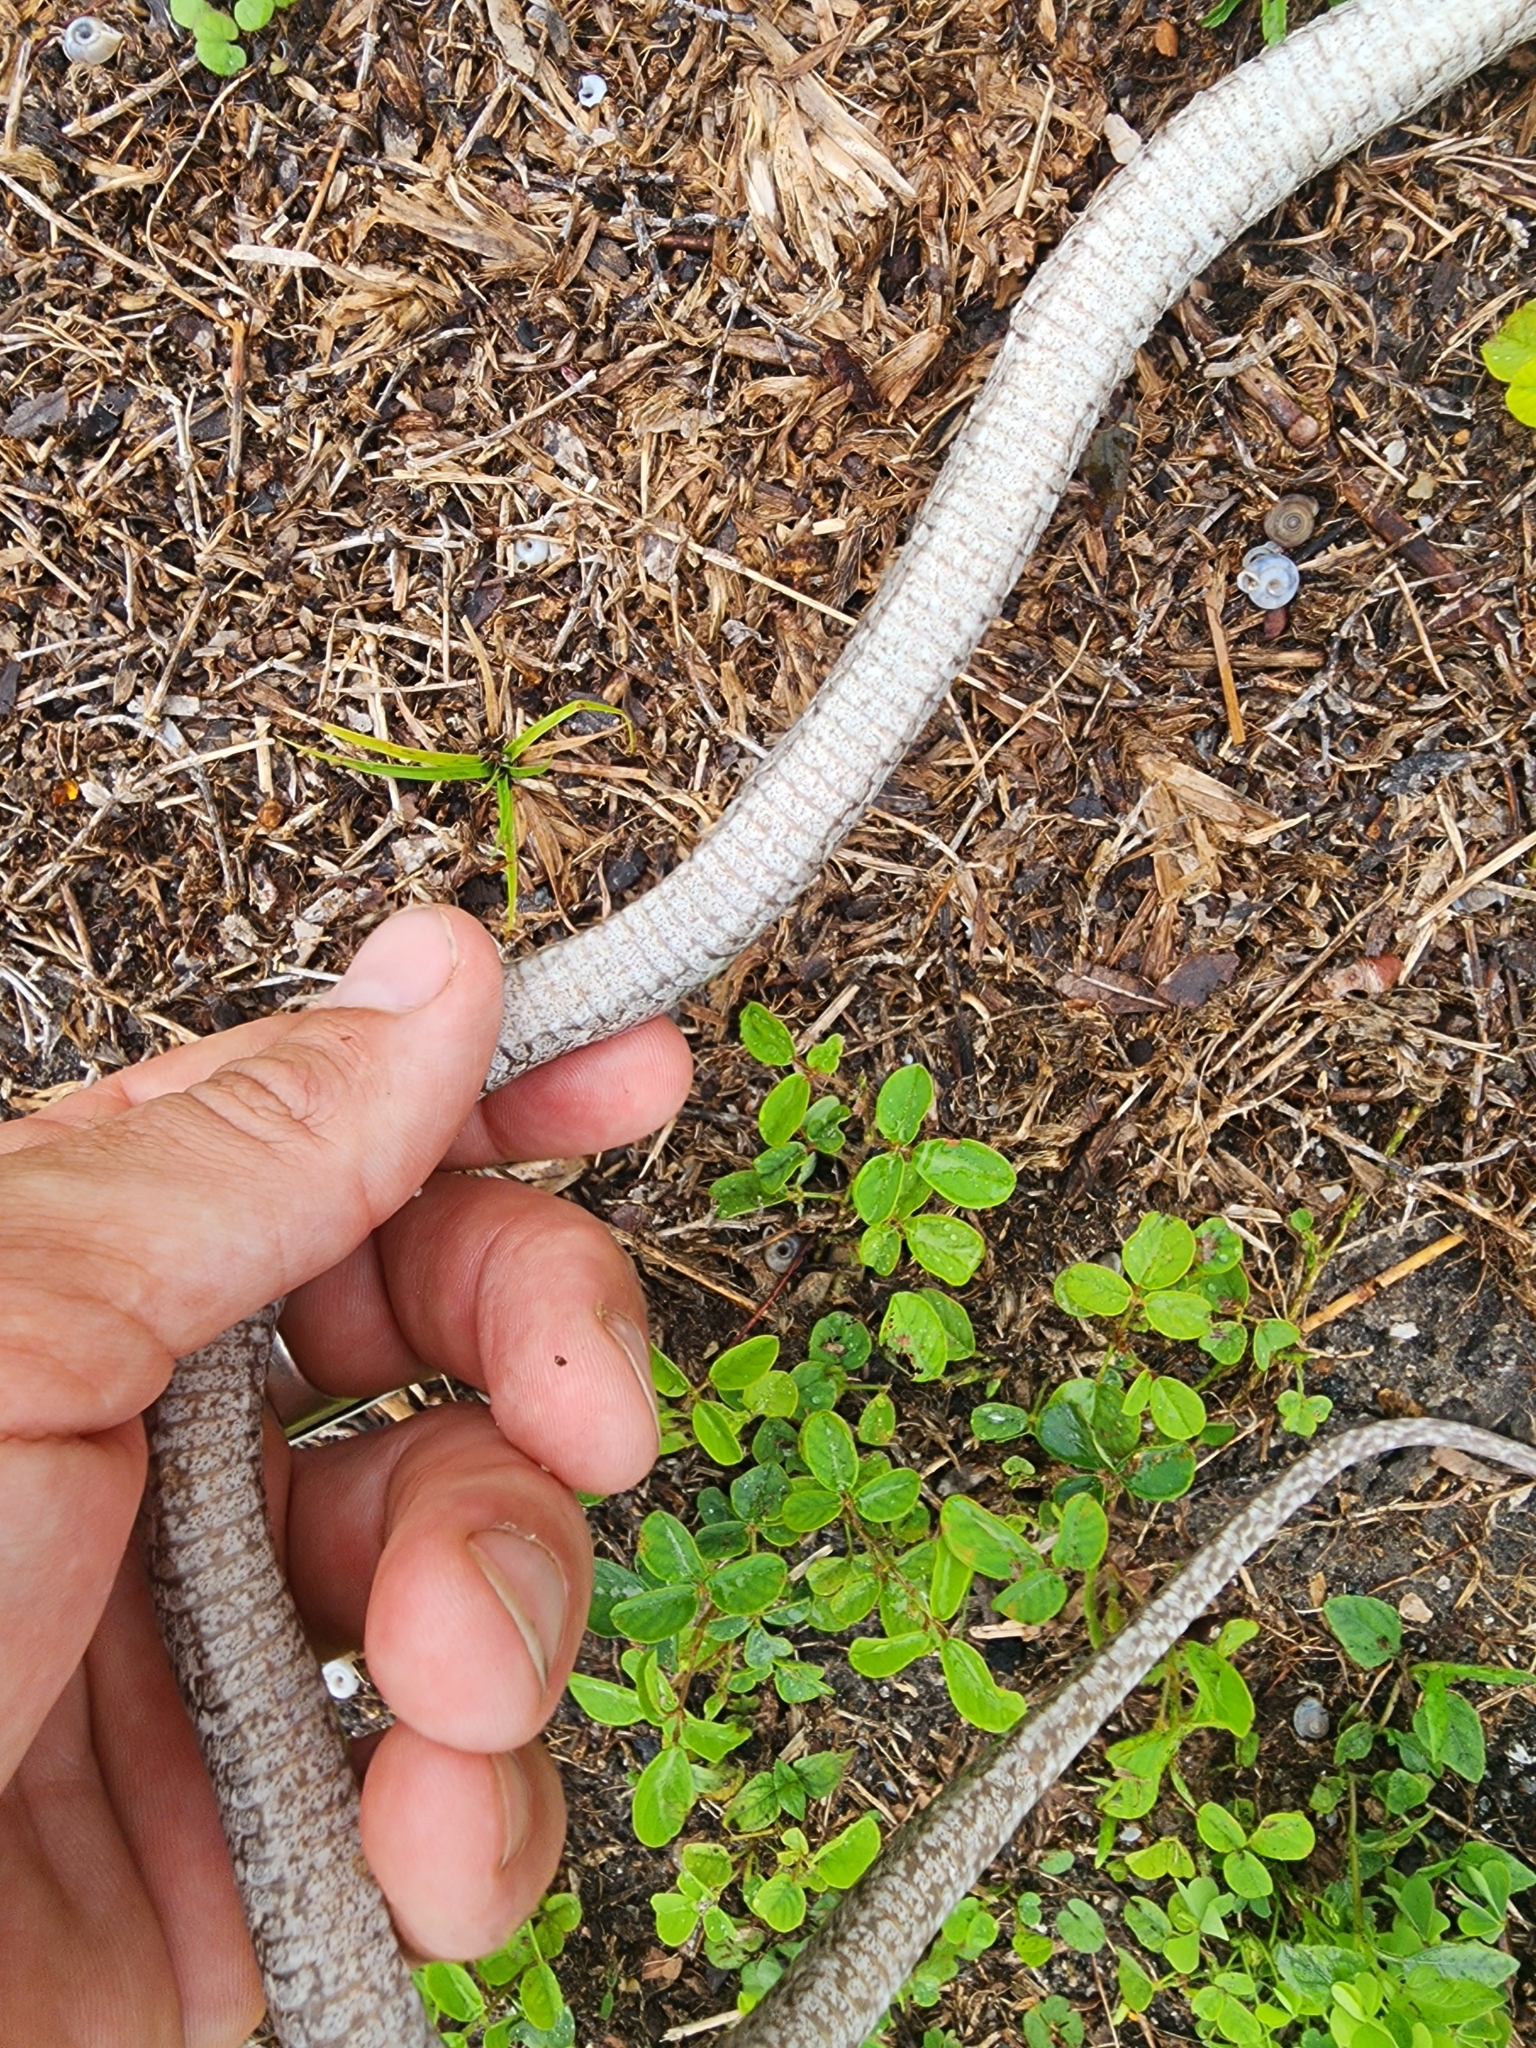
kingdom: Animalia
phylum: Chordata
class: Squamata
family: Colubridae
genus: Pantherophis
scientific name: Pantherophis spiloides
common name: Gray rat snake
